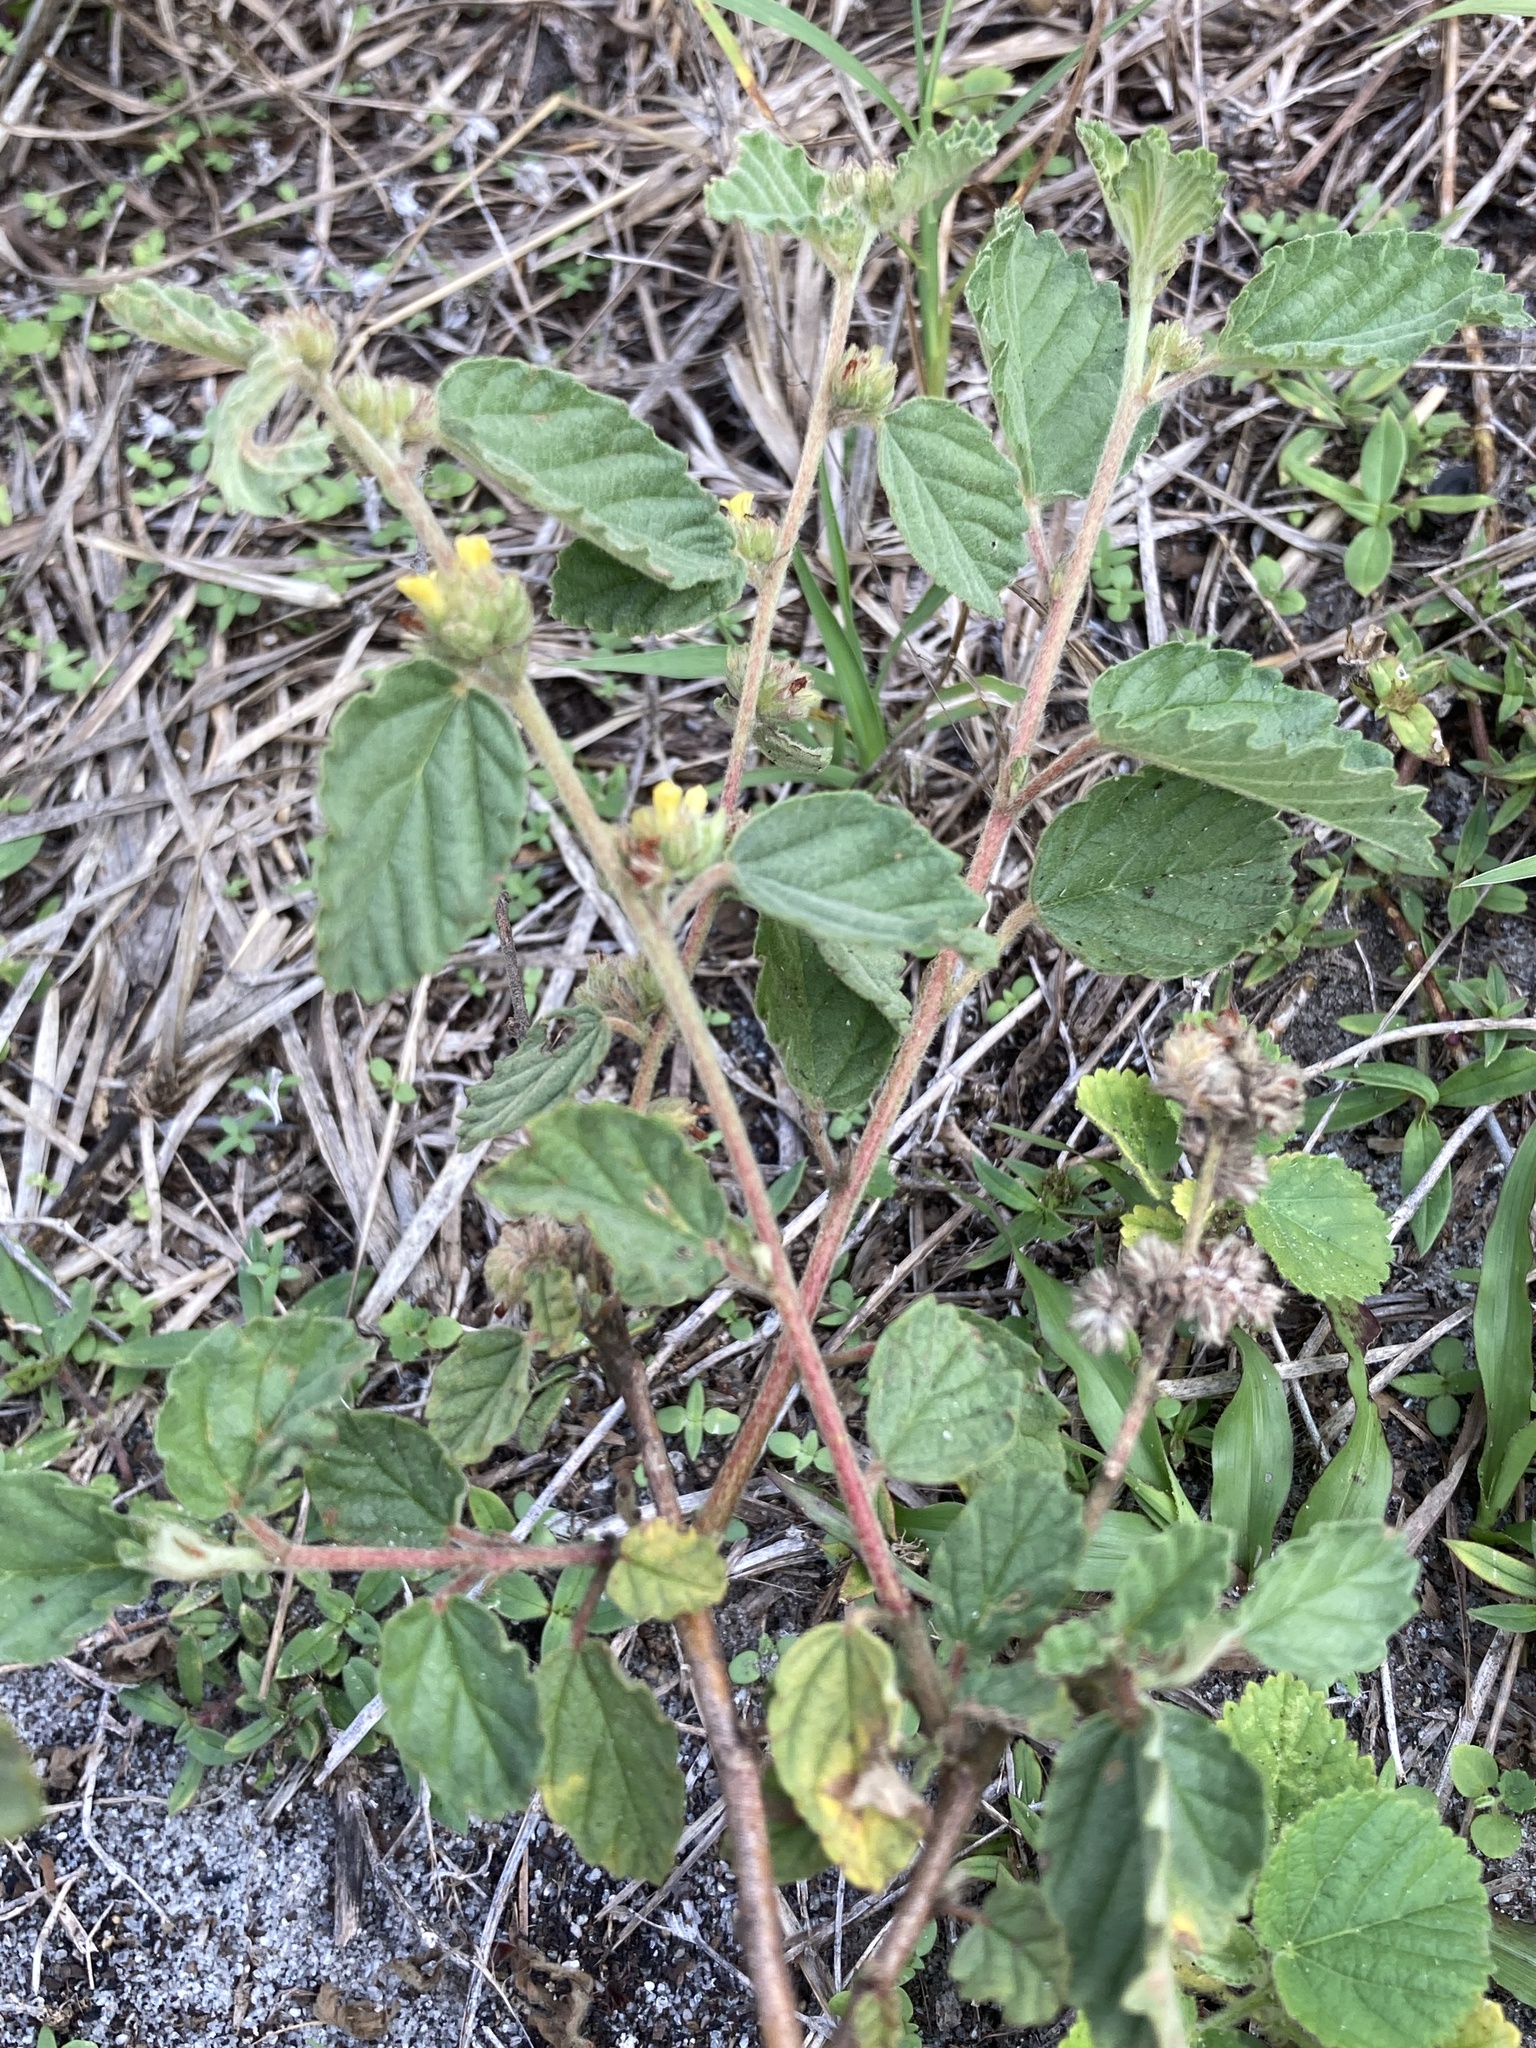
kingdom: Plantae
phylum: Tracheophyta
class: Magnoliopsida
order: Malvales
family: Malvaceae
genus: Waltheria
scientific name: Waltheria indica
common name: Leather-coat
